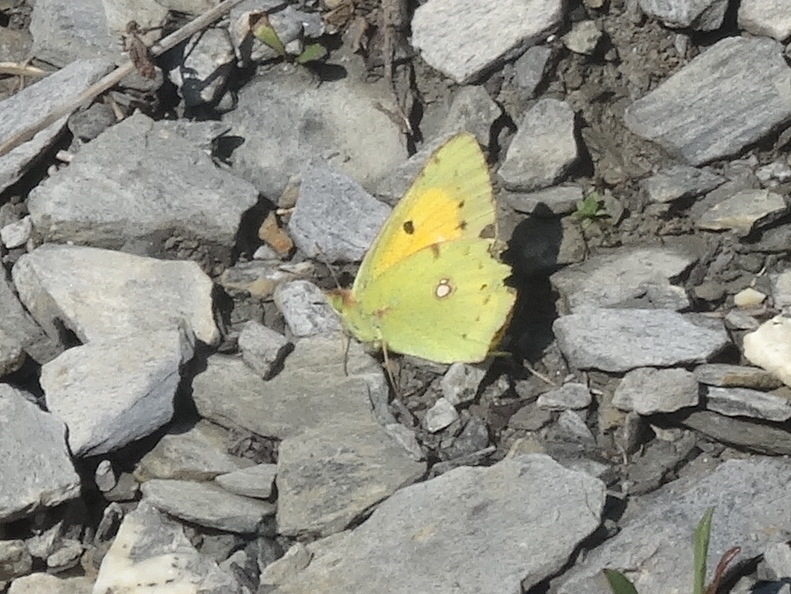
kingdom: Animalia
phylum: Arthropoda
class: Insecta
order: Lepidoptera
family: Pieridae
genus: Colias
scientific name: Colias croceus
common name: Clouded yellow
